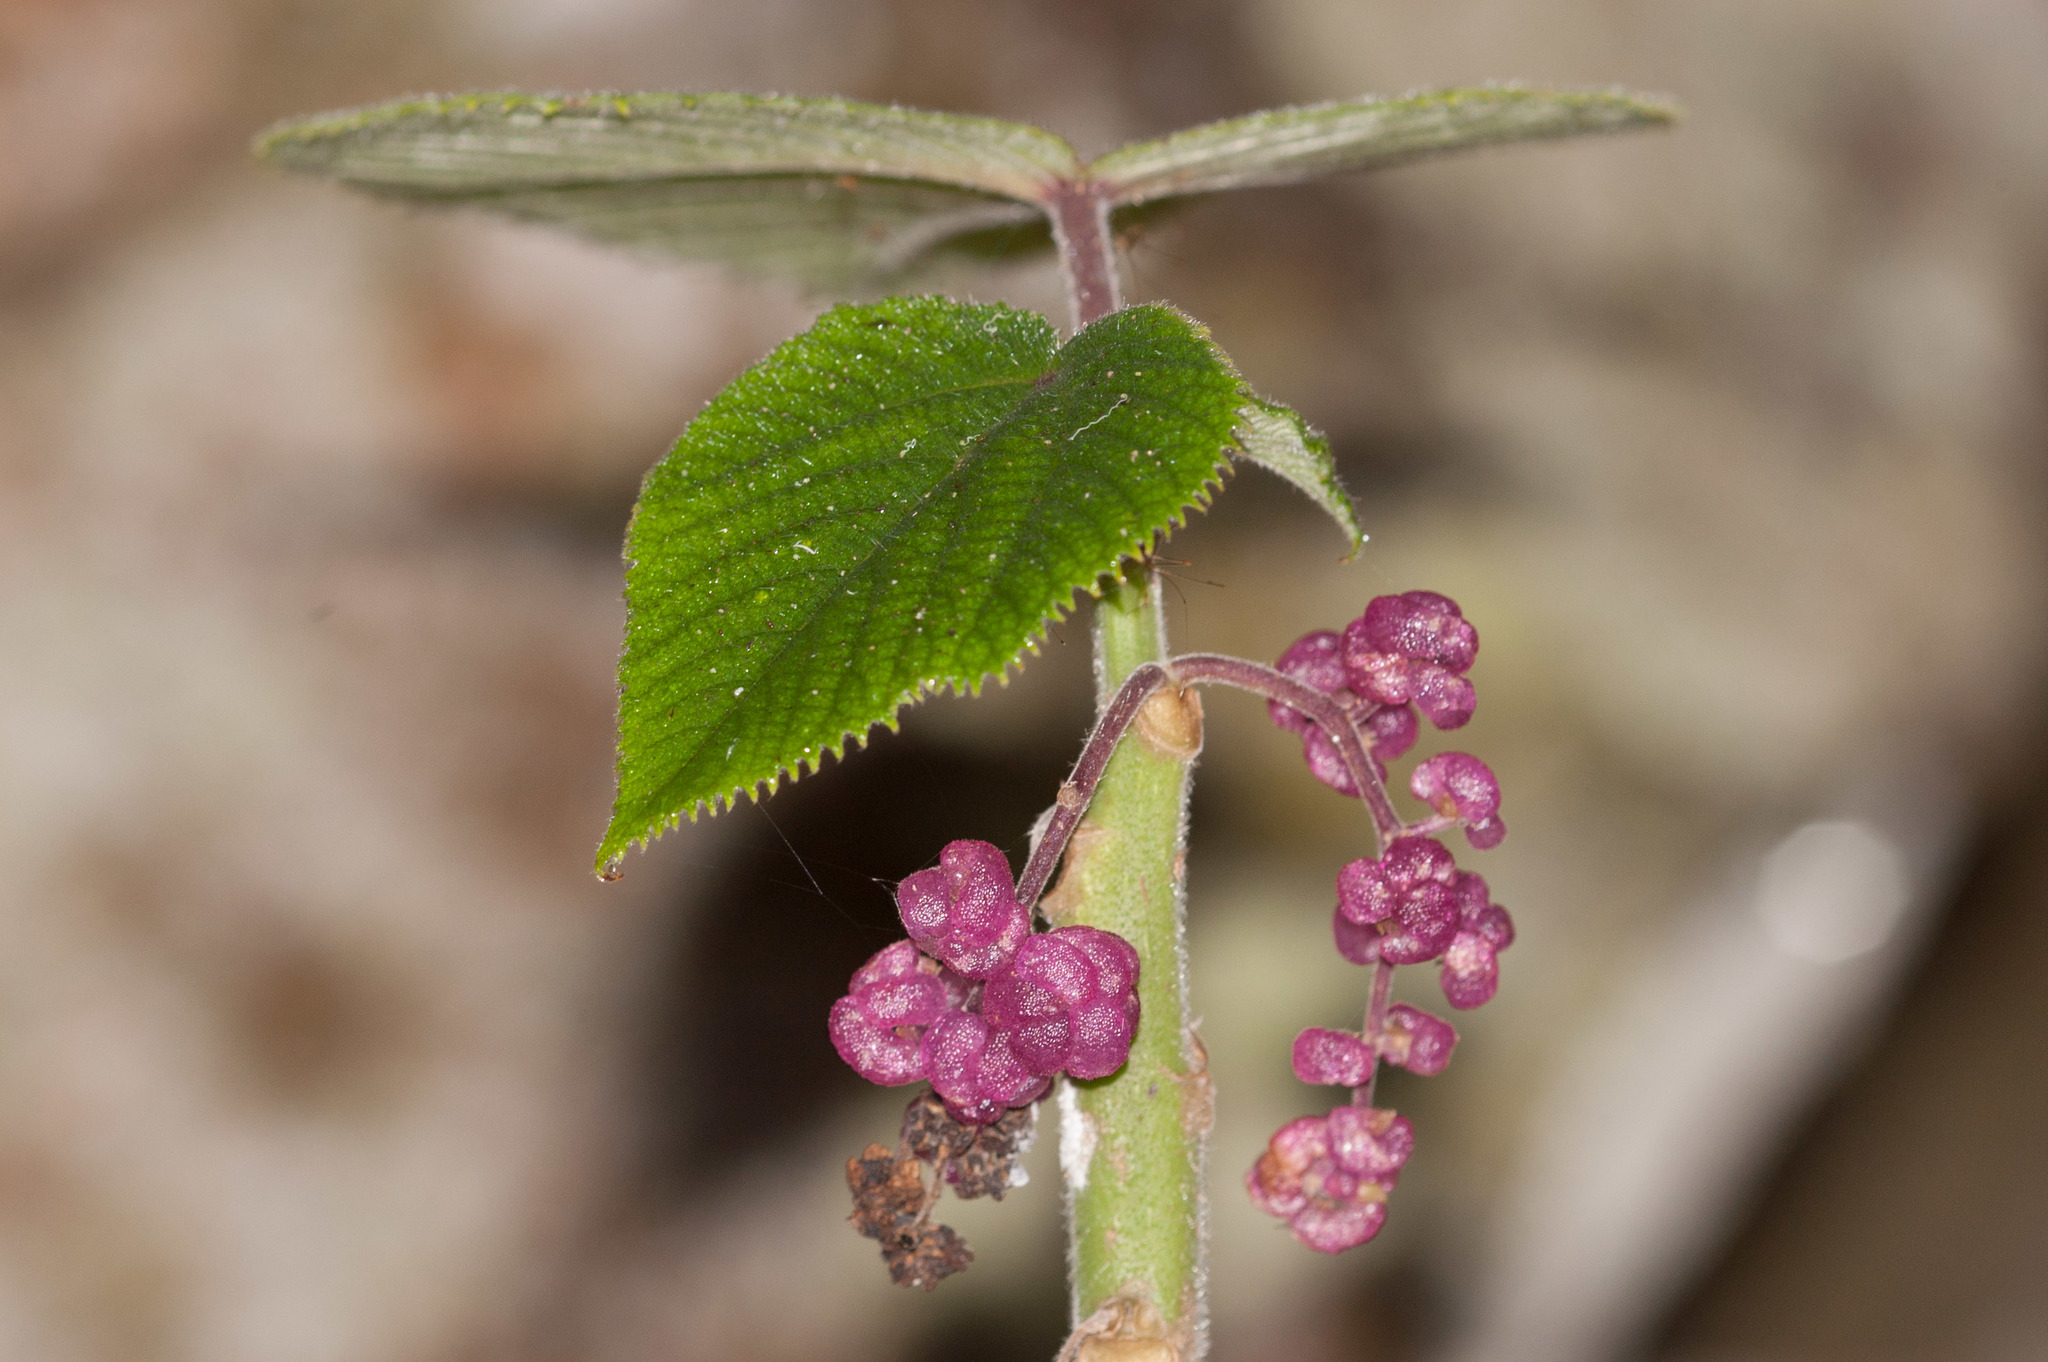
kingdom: Plantae
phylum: Tracheophyta
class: Magnoliopsida
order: Rosales
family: Urticaceae
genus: Dendrocnide
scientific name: Dendrocnide moroides
